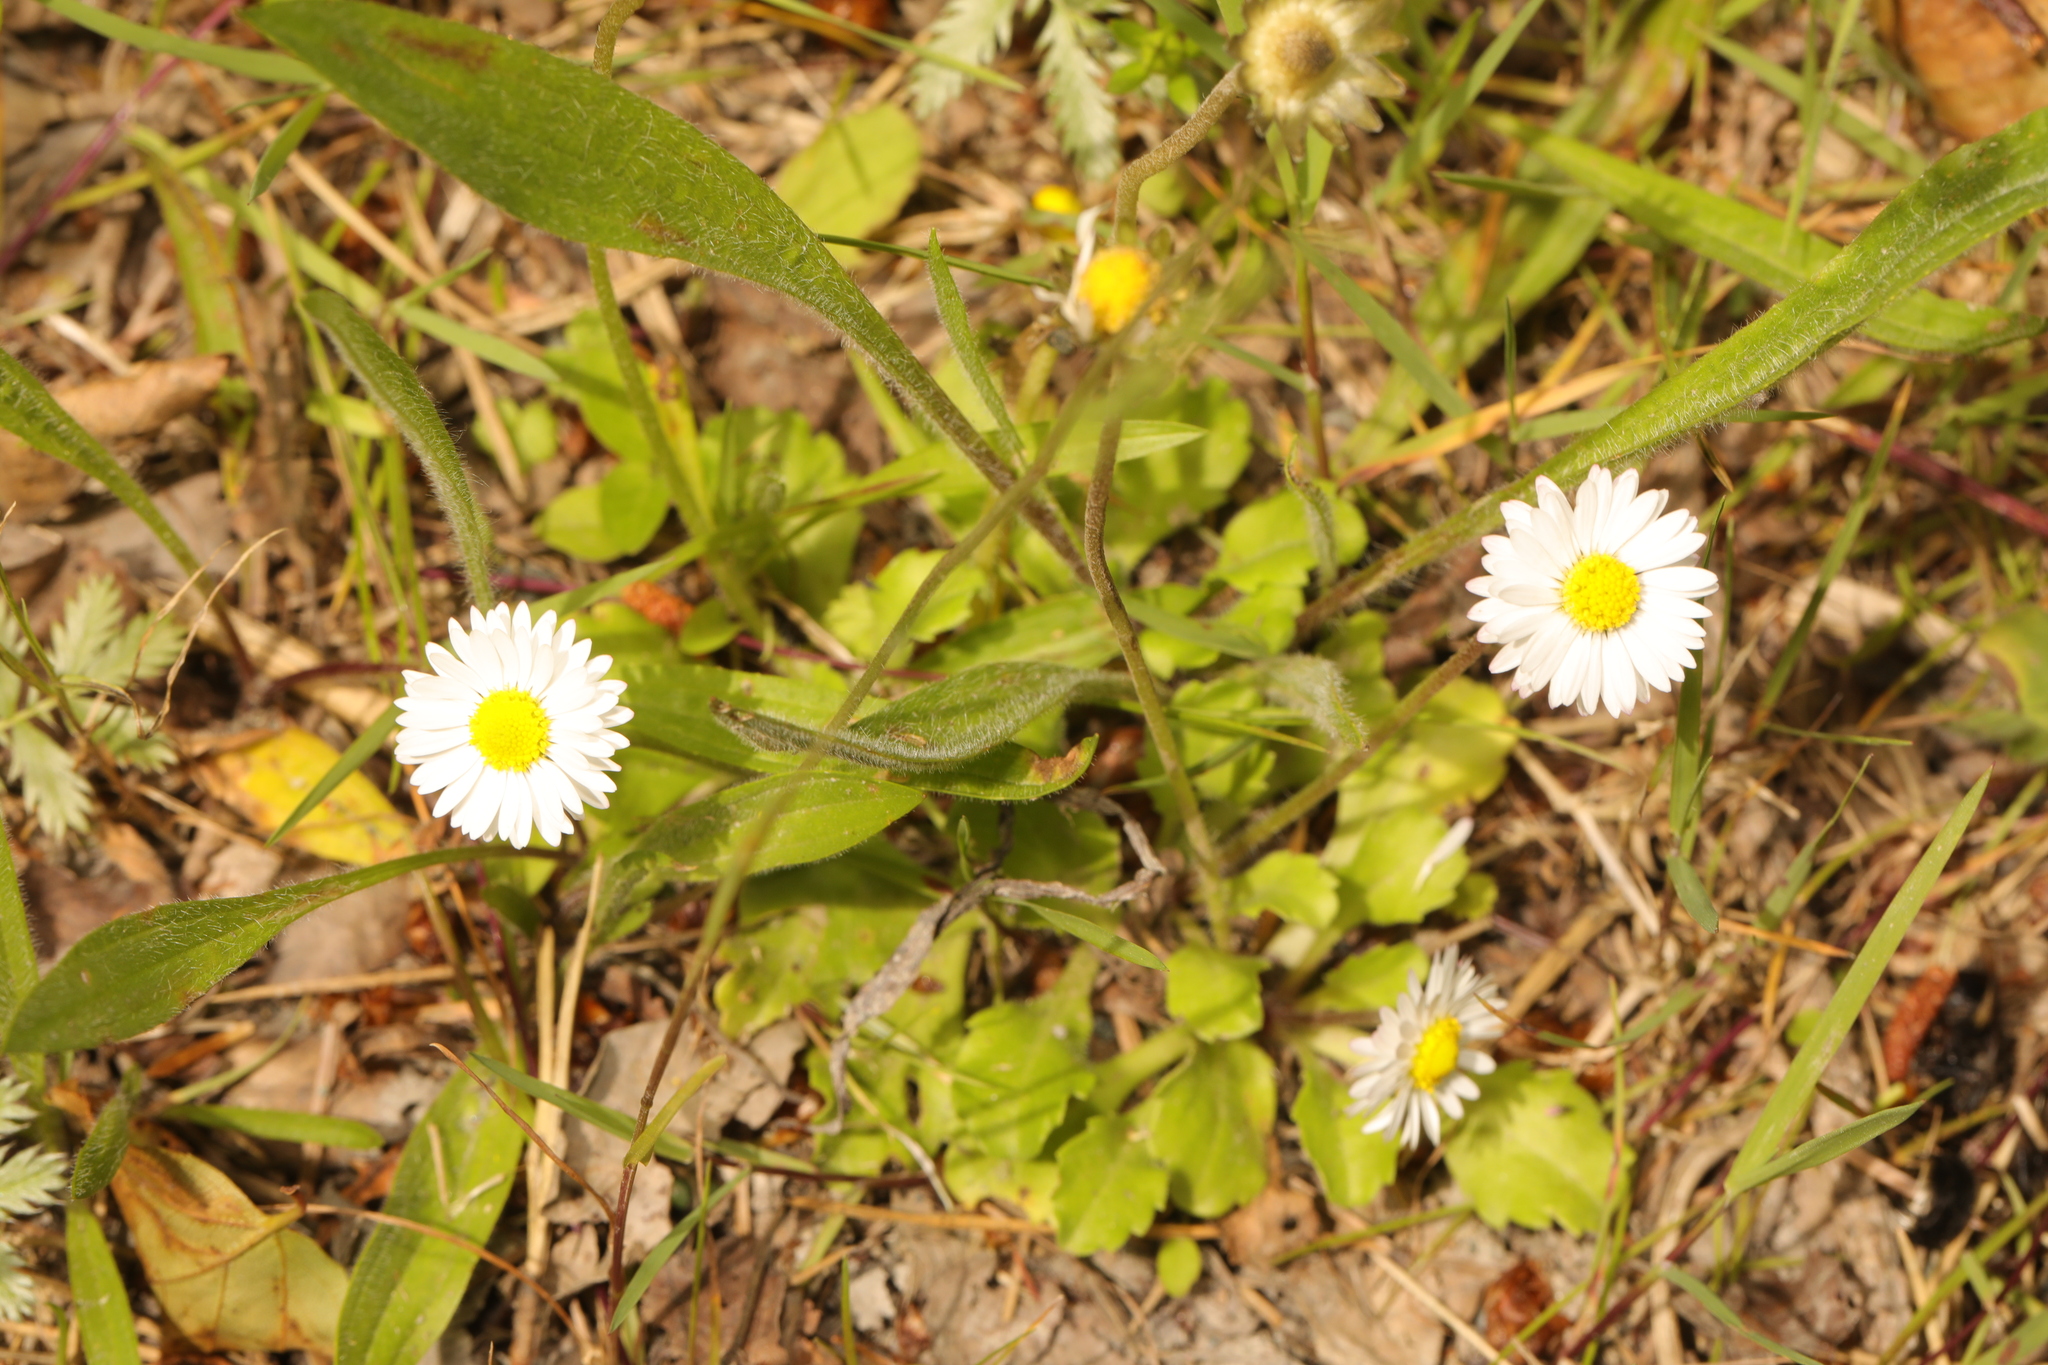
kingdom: Plantae
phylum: Tracheophyta
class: Magnoliopsida
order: Asterales
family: Asteraceae
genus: Bellis
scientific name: Bellis perennis
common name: Lawndaisy
